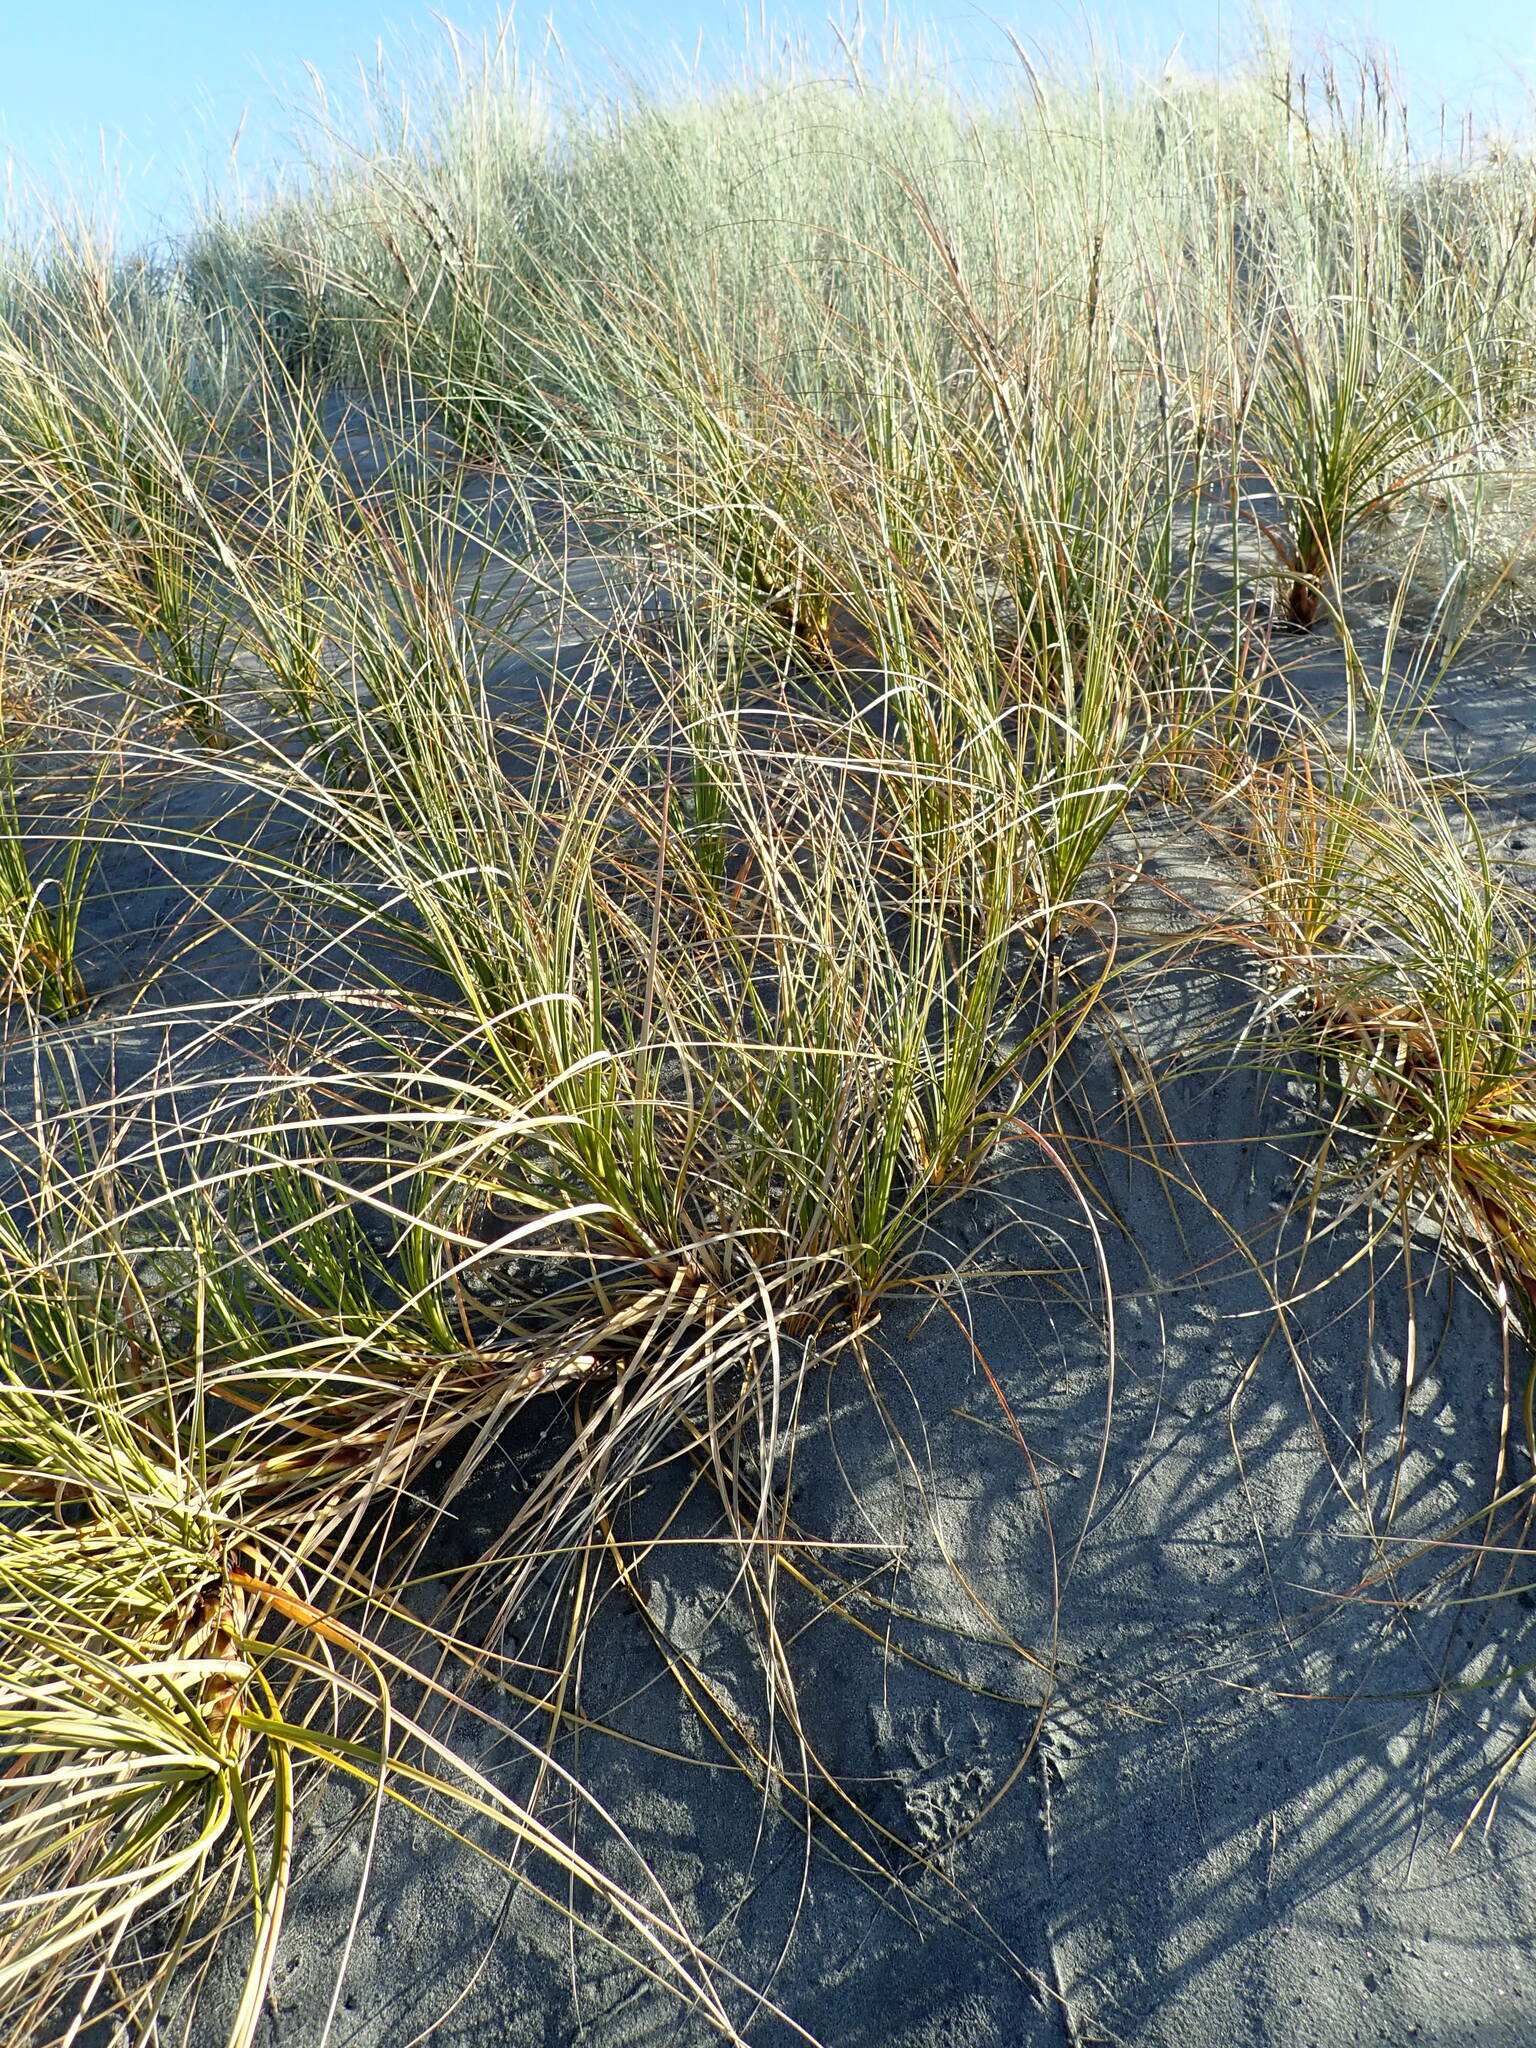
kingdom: Plantae
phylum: Tracheophyta
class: Liliopsida
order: Poales
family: Cyperaceae
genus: Ficinia
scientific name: Ficinia spiralis
